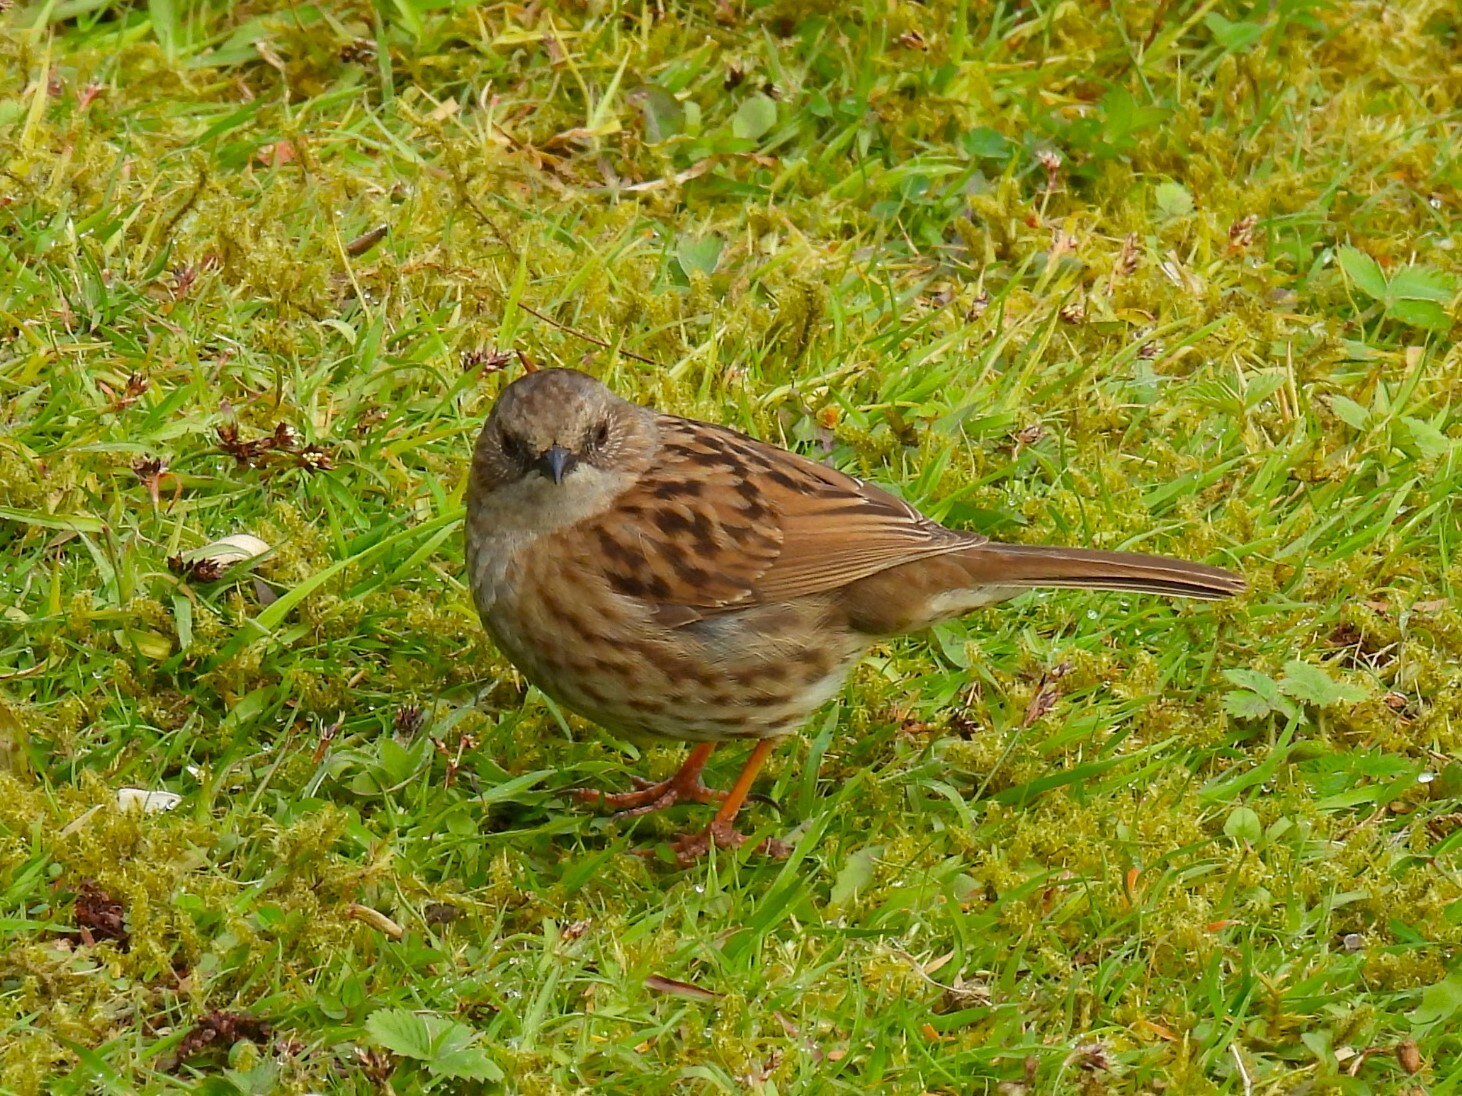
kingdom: Animalia
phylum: Chordata
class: Aves
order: Passeriformes
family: Prunellidae
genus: Prunella
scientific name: Prunella modularis
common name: Dunnock
